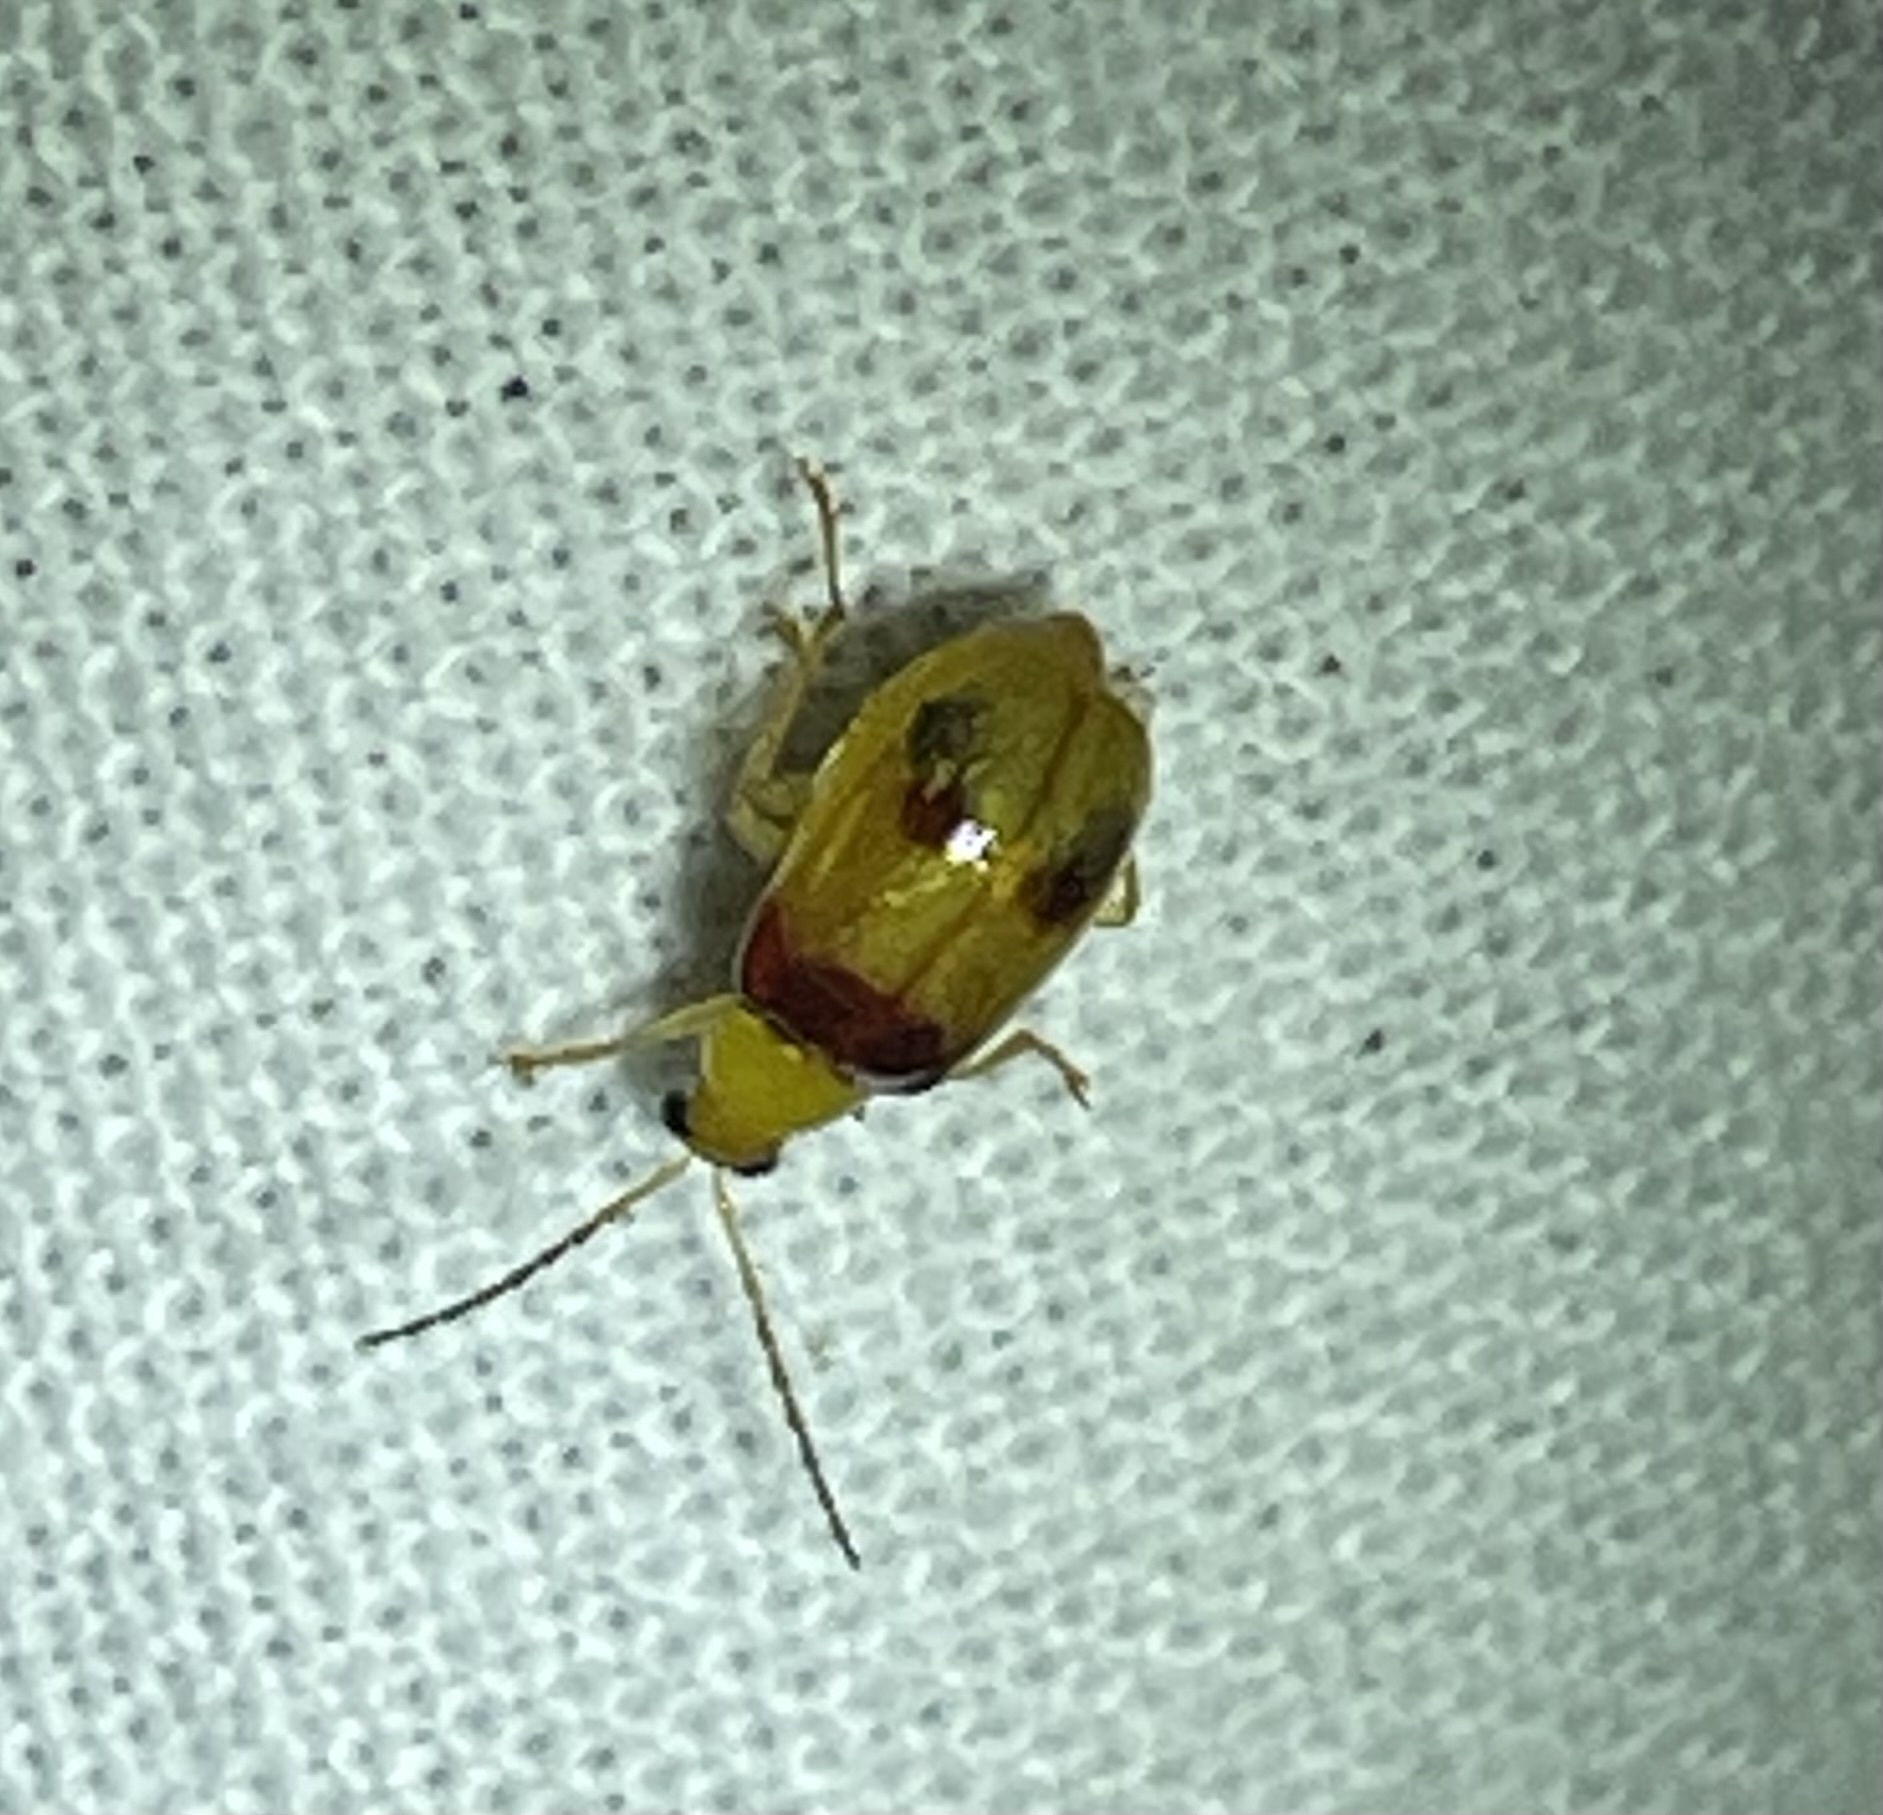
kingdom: Animalia
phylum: Arthropoda
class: Insecta
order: Coleoptera
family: Chrysomelidae
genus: Monolepta
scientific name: Monolepta
